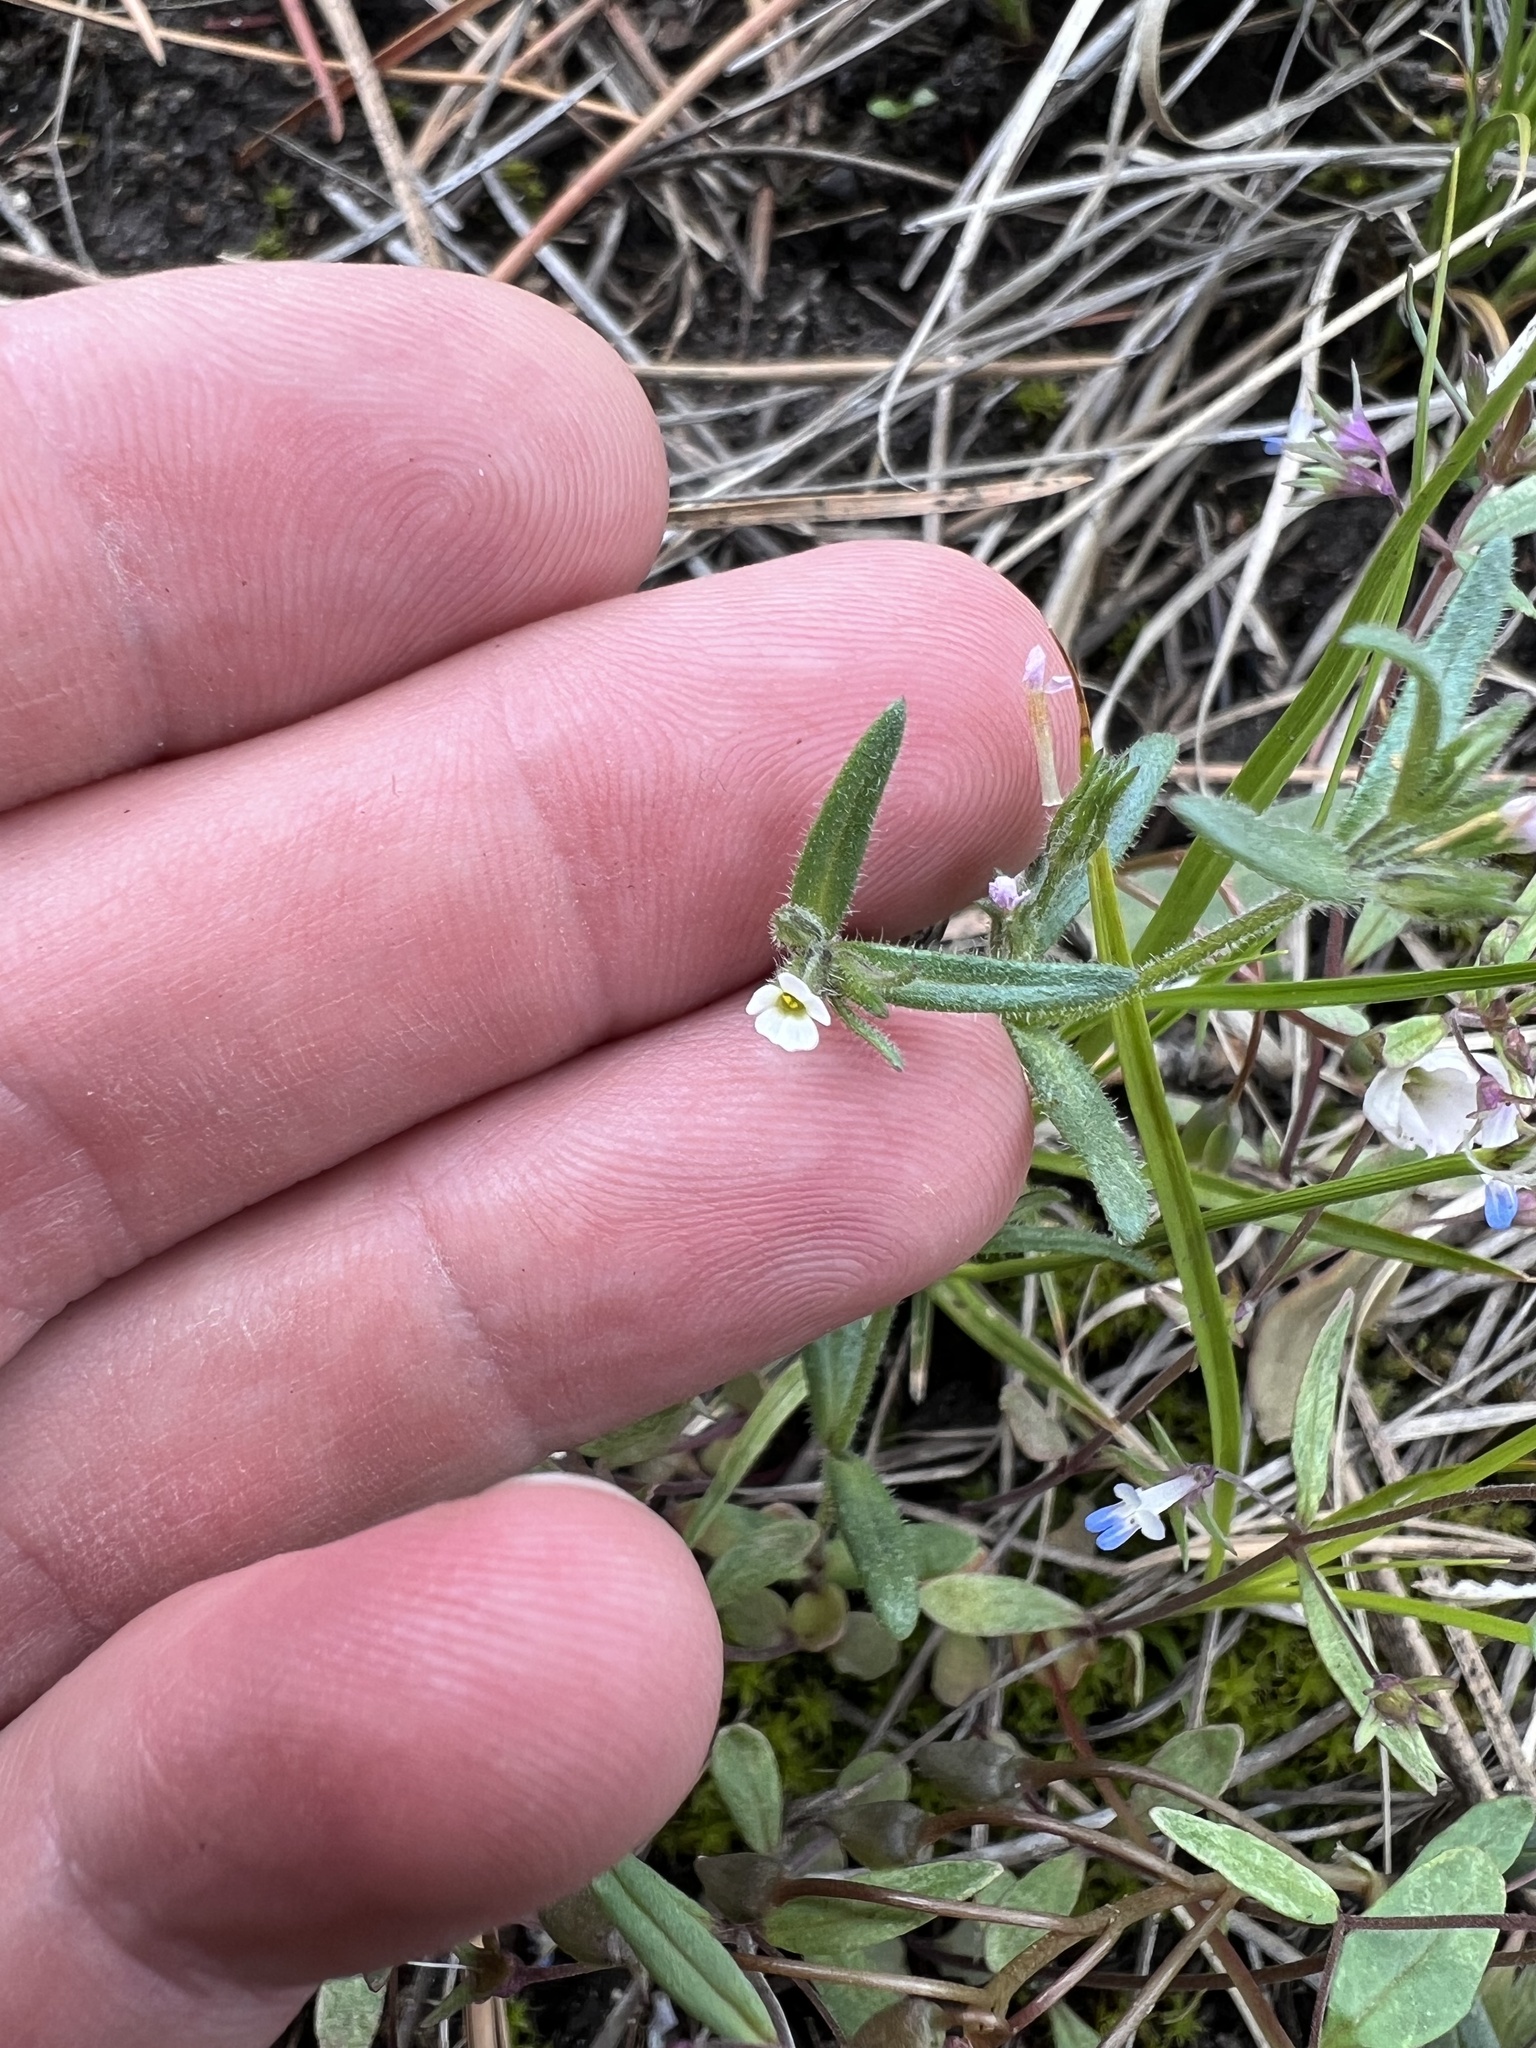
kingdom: Plantae
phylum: Tracheophyta
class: Magnoliopsida
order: Boraginales
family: Boraginaceae
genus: Buglossoides
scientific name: Buglossoides arvensis
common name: Corn gromwell
